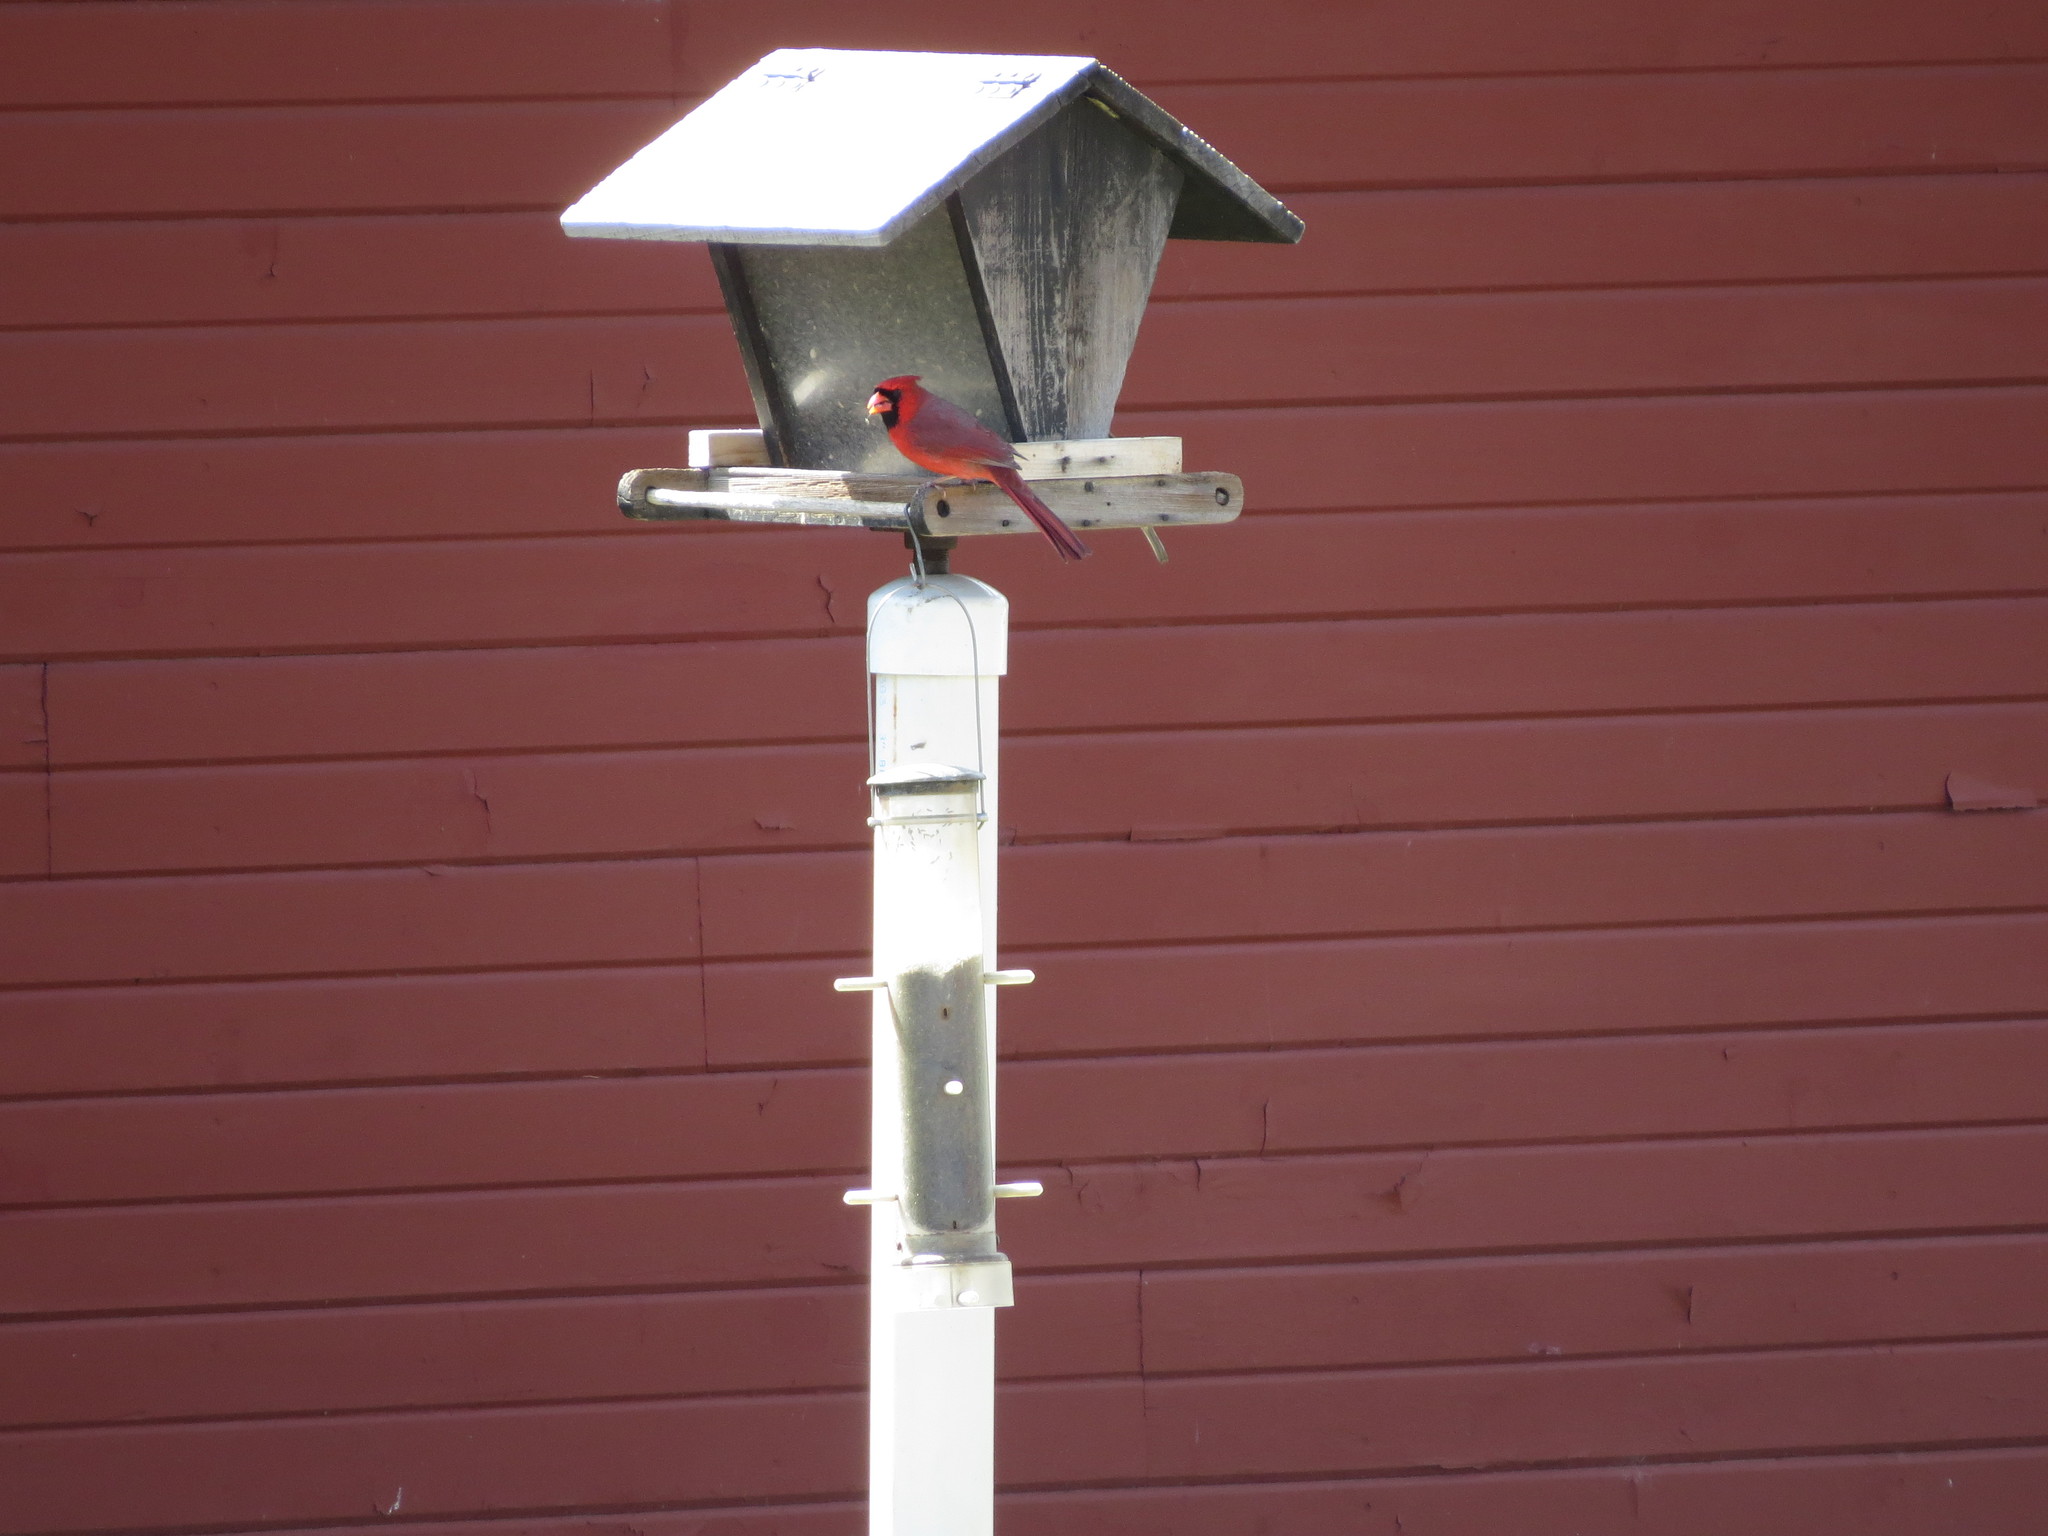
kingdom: Animalia
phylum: Chordata
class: Aves
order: Passeriformes
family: Cardinalidae
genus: Cardinalis
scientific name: Cardinalis cardinalis
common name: Northern cardinal
